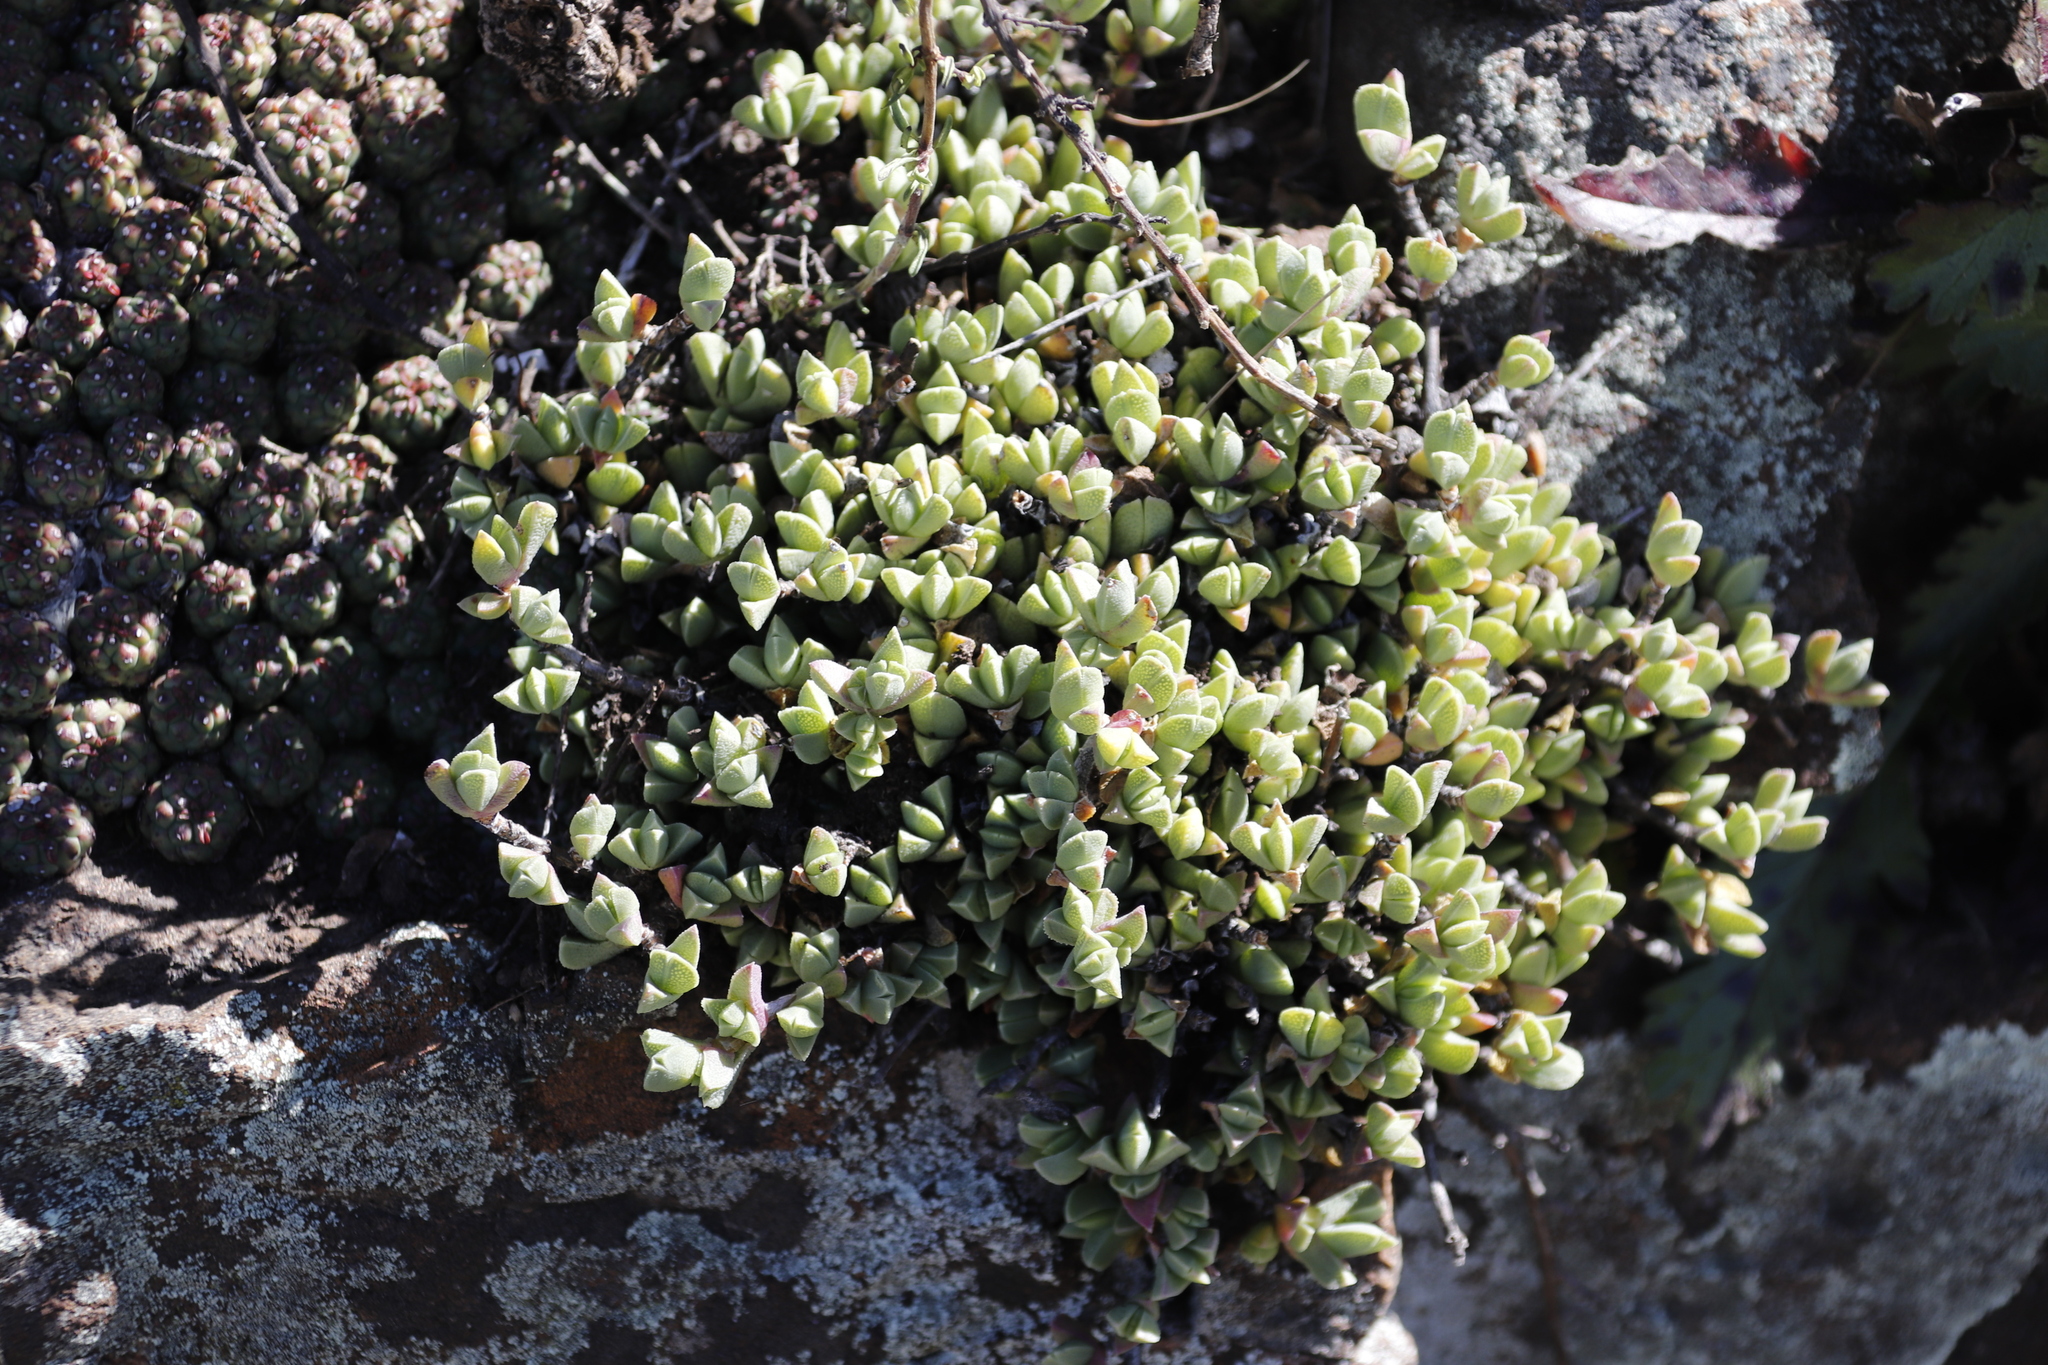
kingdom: Plantae
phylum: Tracheophyta
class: Magnoliopsida
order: Caryophyllales
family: Aizoaceae
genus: Ruschia
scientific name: Ruschia putterillii
